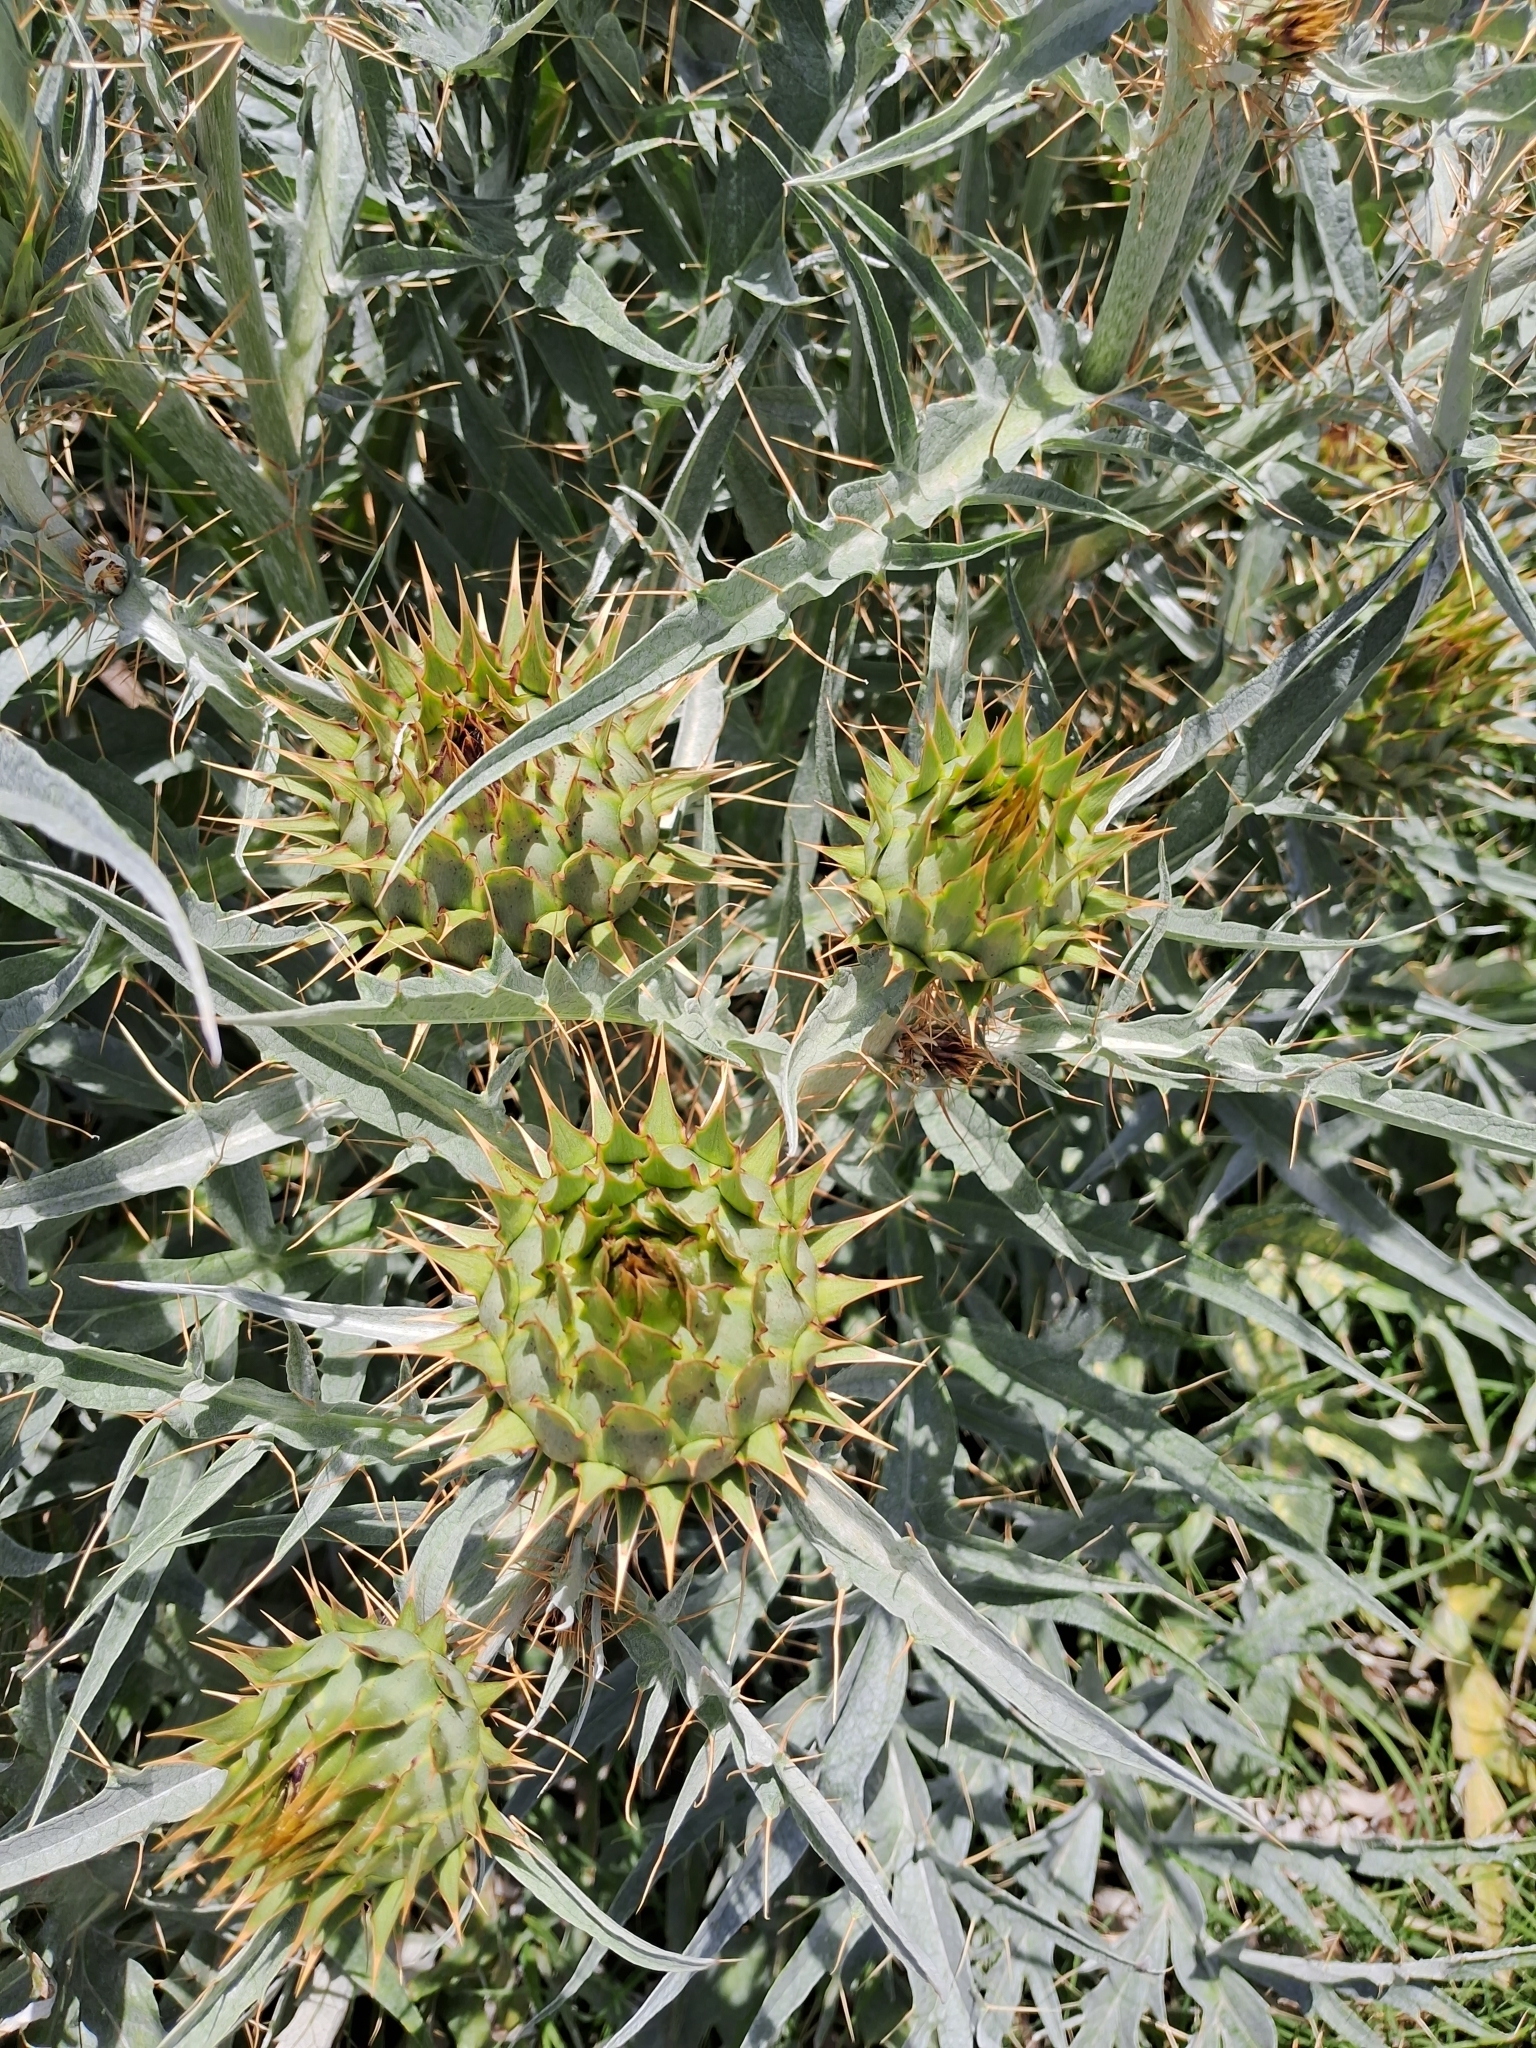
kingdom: Plantae
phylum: Tracheophyta
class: Magnoliopsida
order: Asterales
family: Asteraceae
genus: Cynara
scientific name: Cynara cardunculus
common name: Globe artichoke
